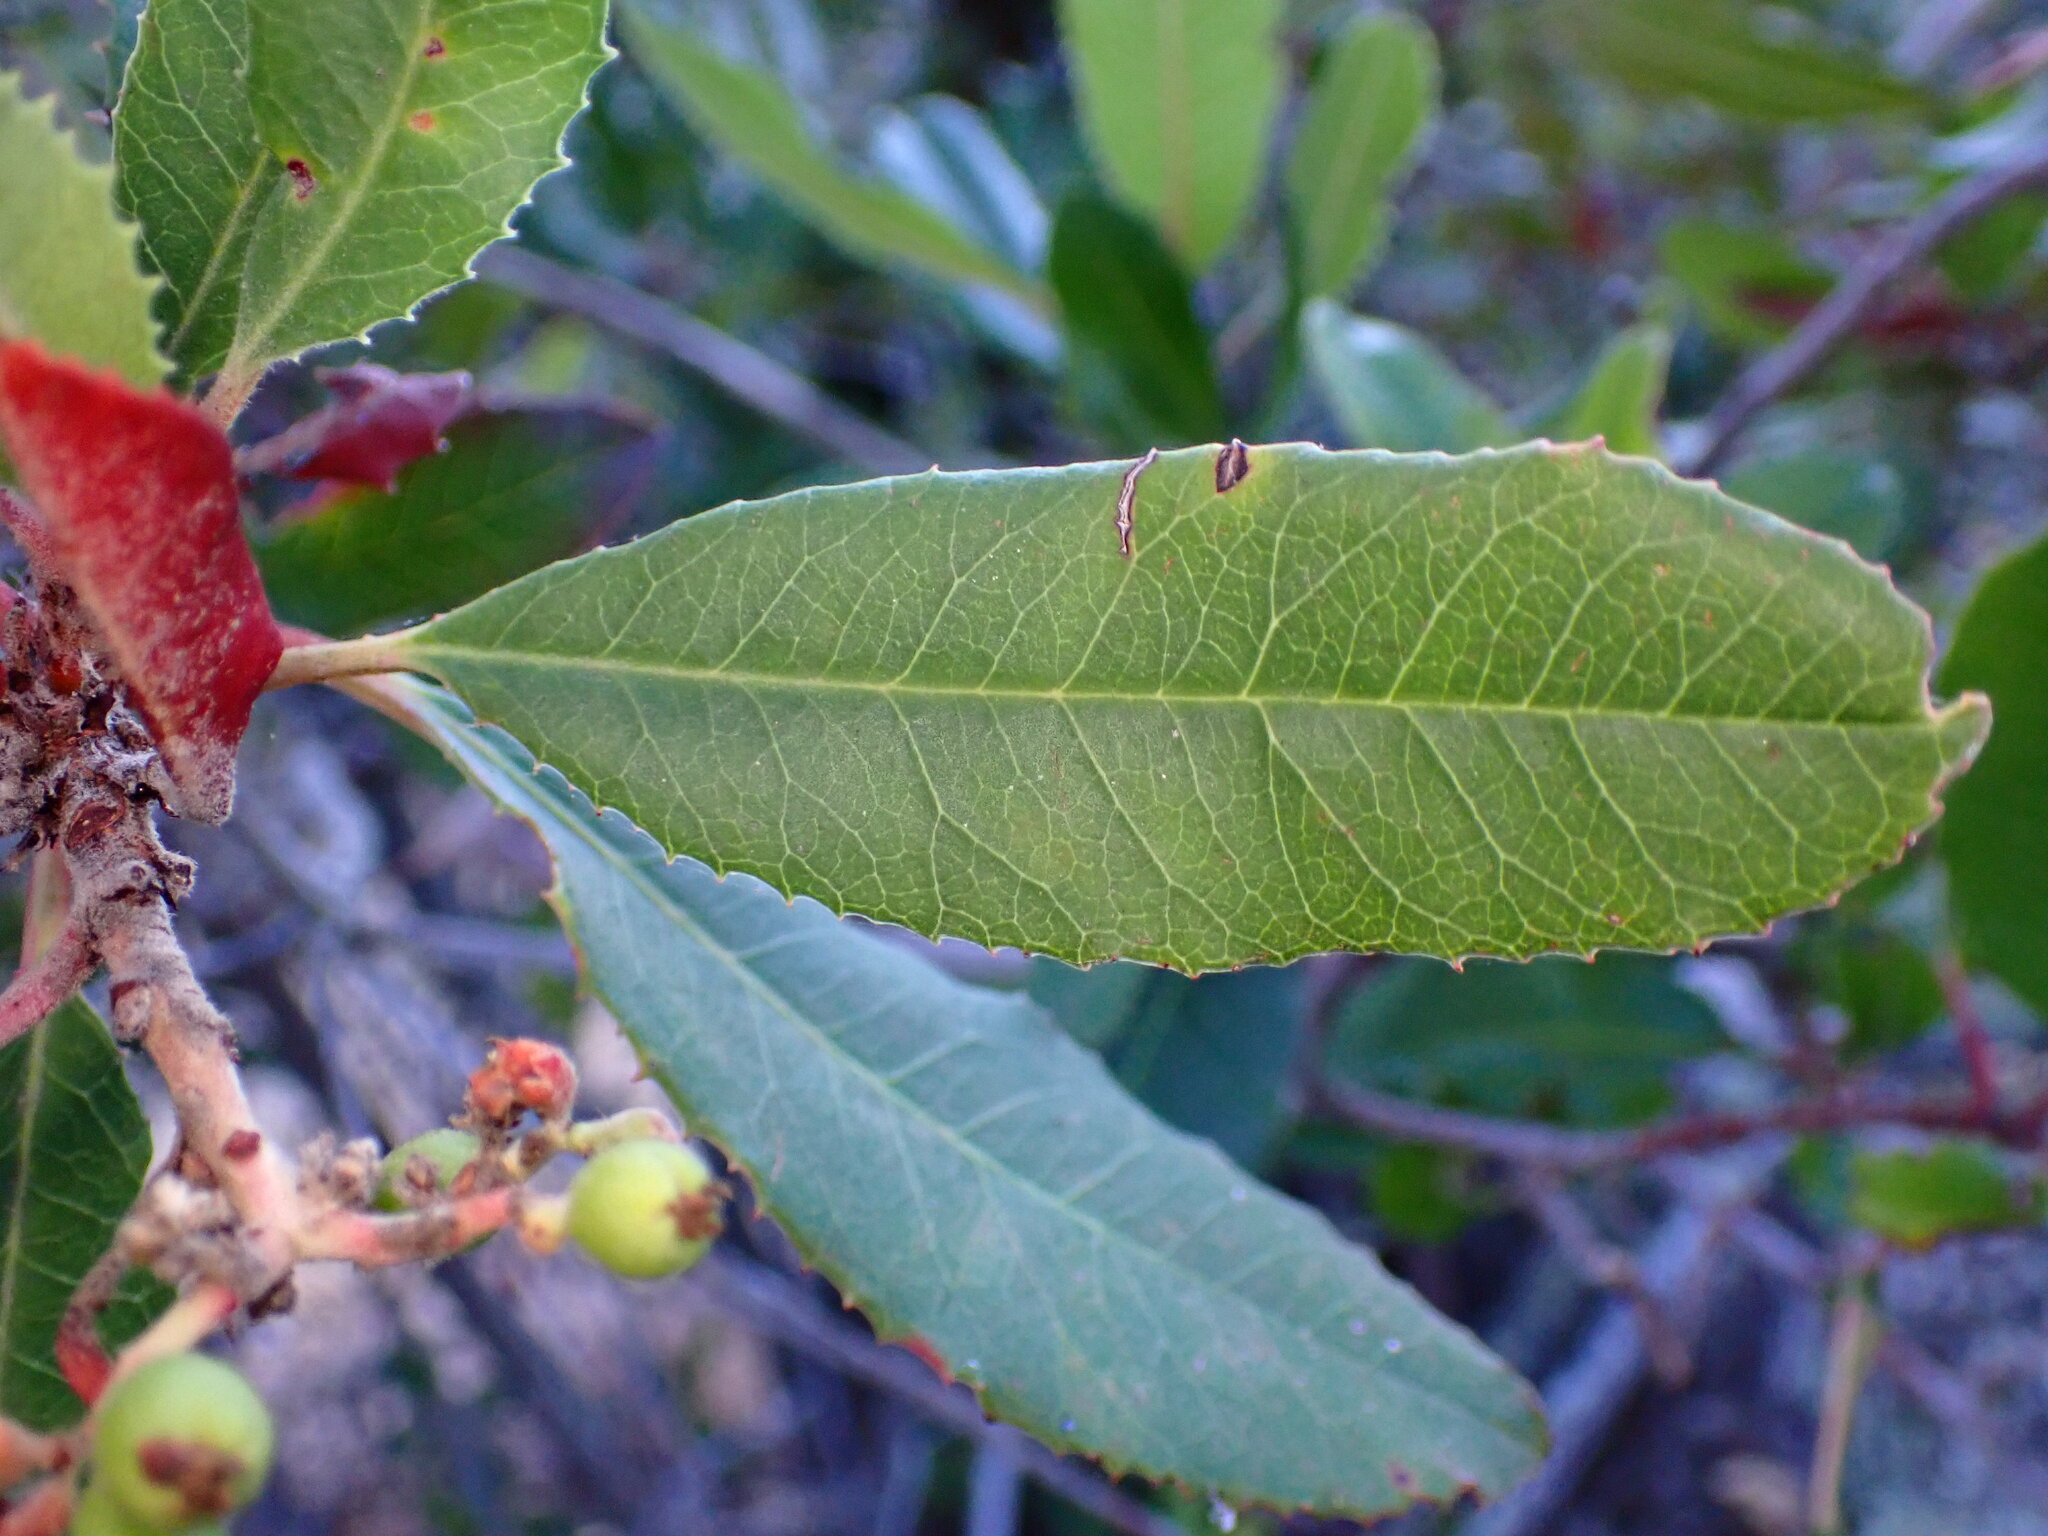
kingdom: Plantae
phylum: Tracheophyta
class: Magnoliopsida
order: Rosales
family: Rosaceae
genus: Heteromeles
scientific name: Heteromeles arbutifolia
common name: California-holly
